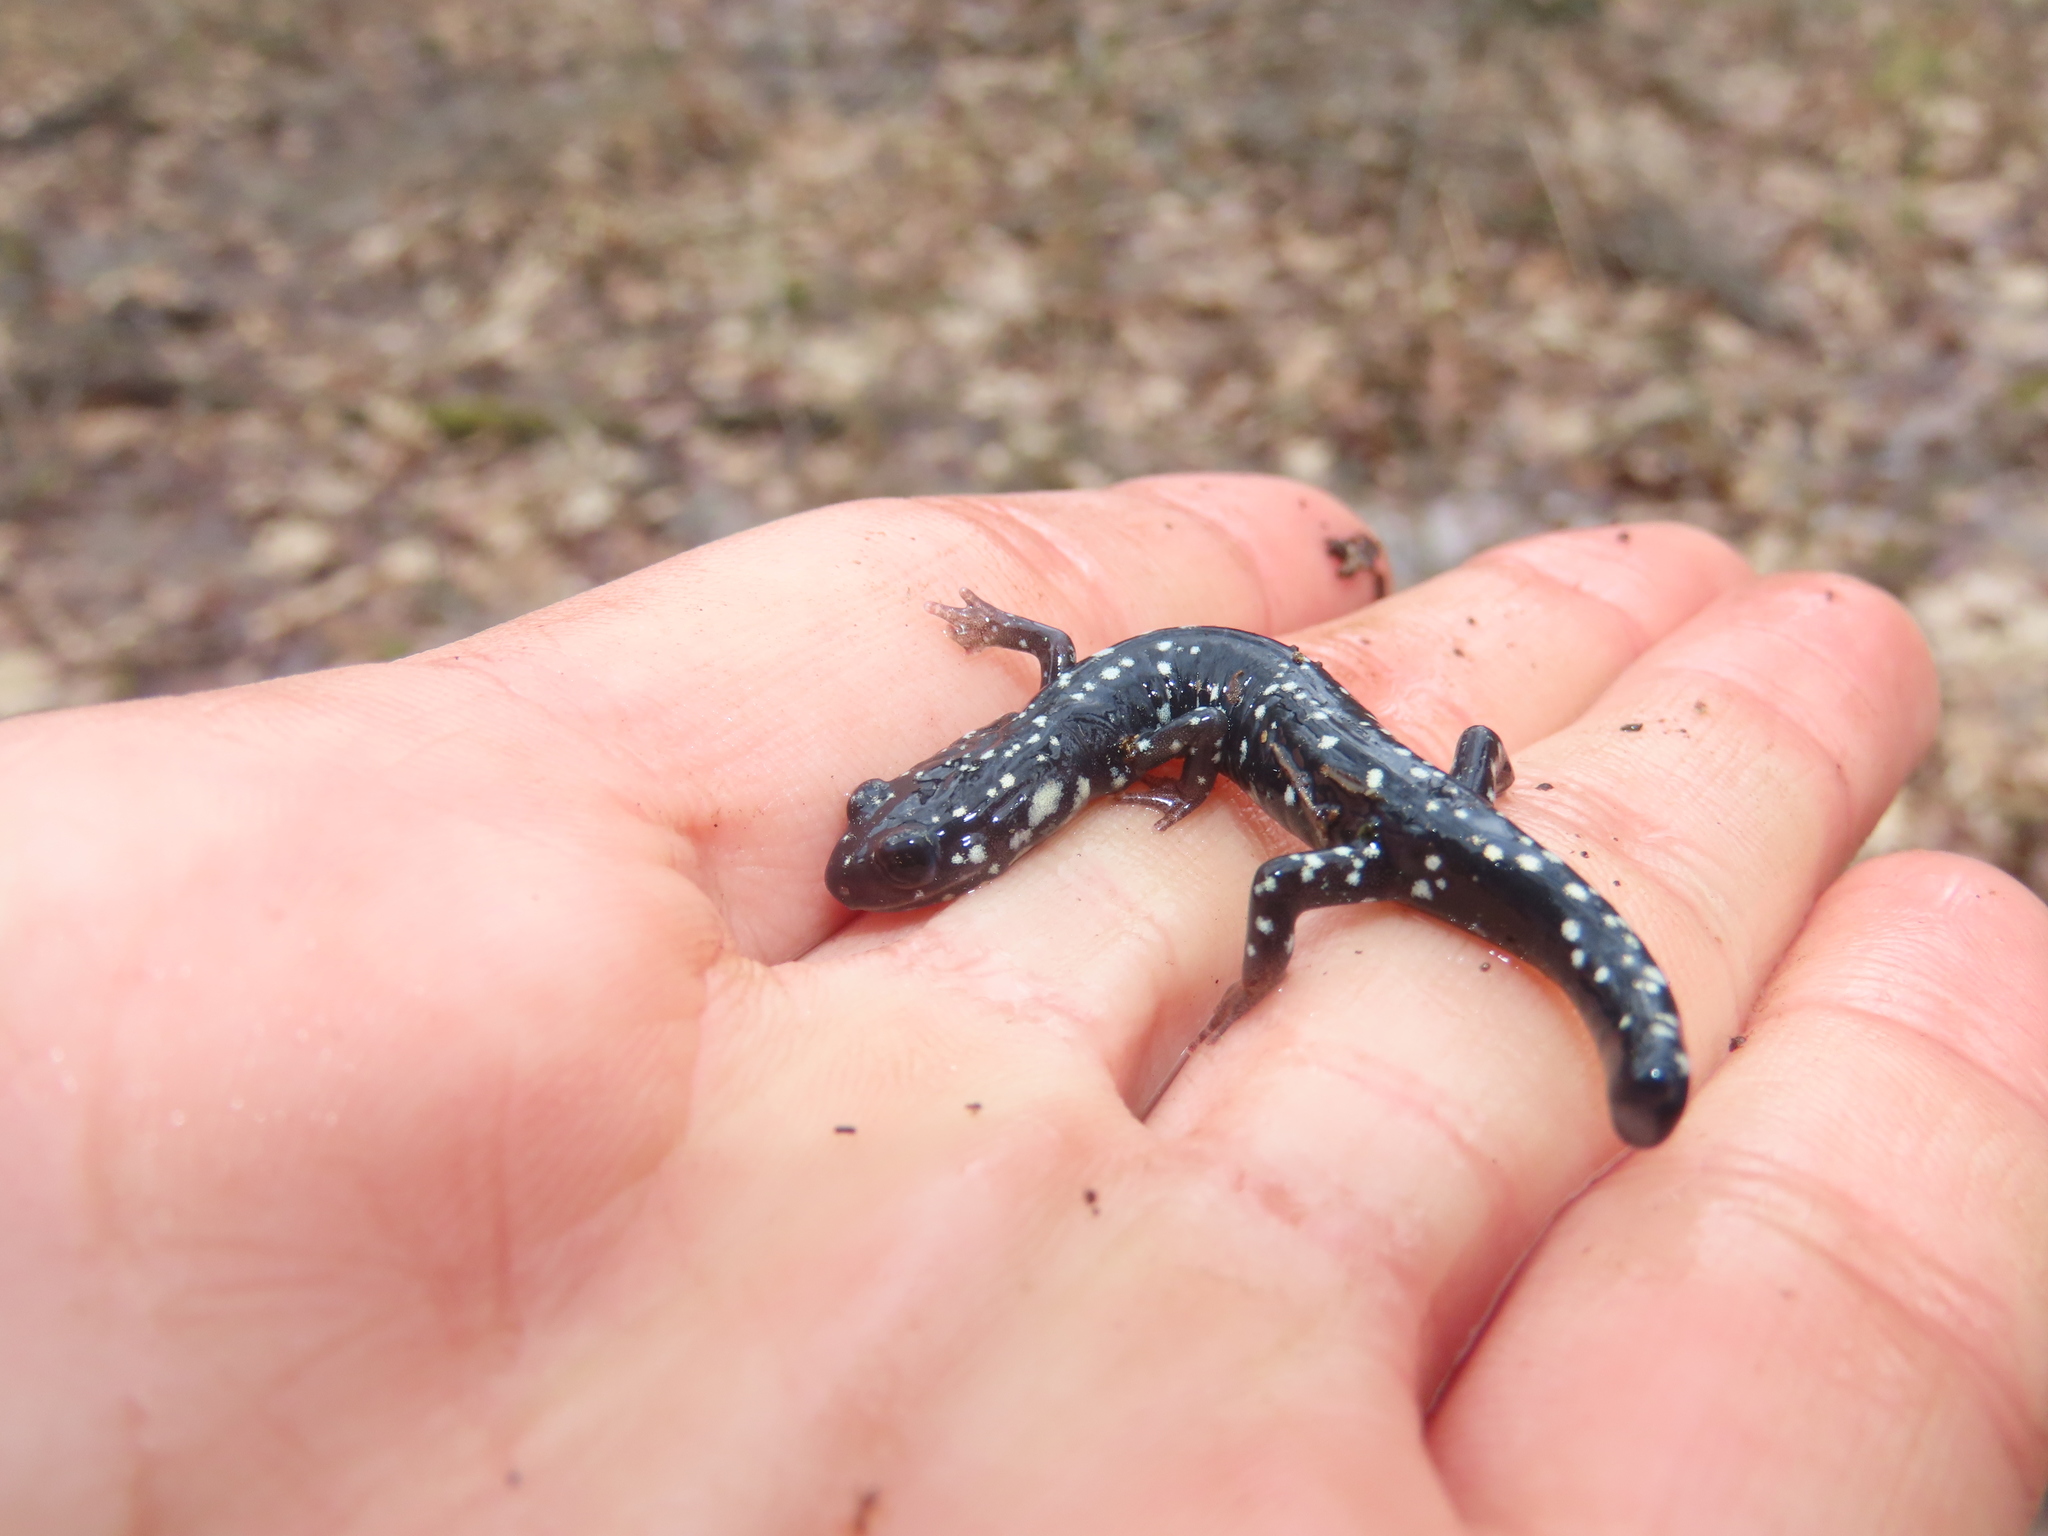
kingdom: Animalia
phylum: Chordata
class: Amphibia
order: Caudata
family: Plethodontidae
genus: Plethodon
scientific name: Plethodon glutinosus
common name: Northern slimy salamander
